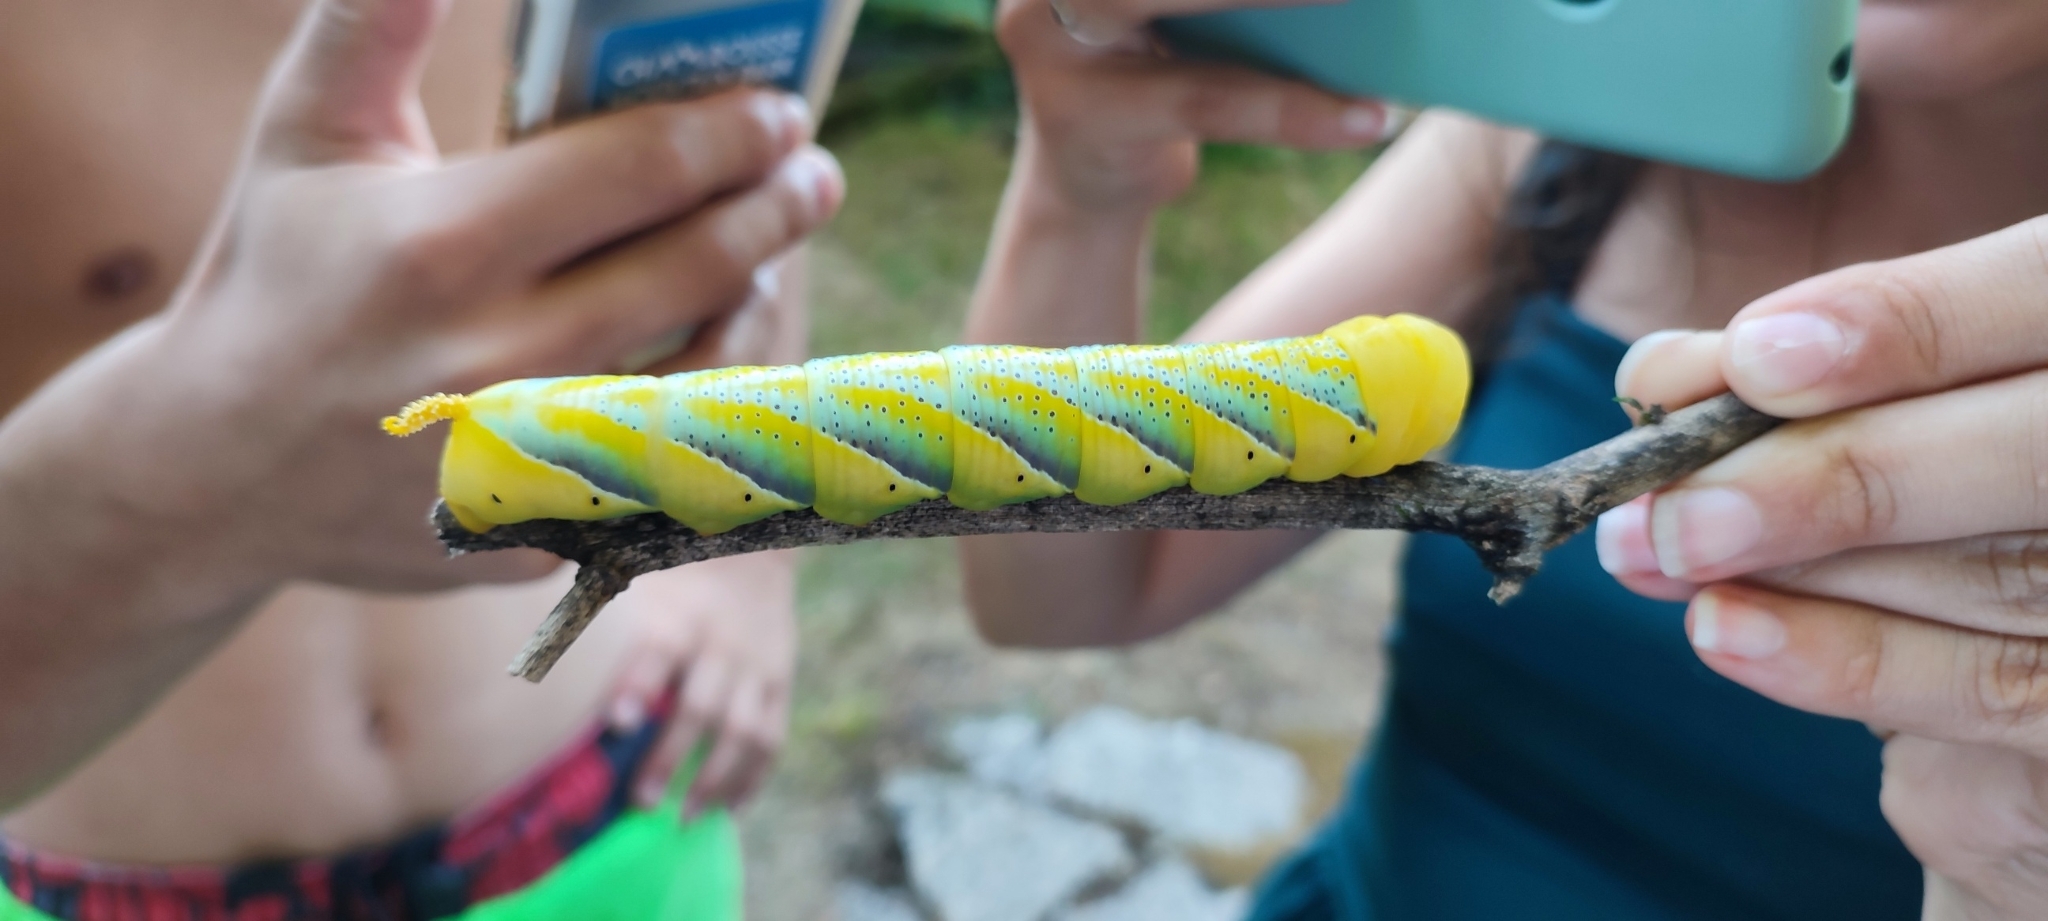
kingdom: Animalia
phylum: Arthropoda
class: Insecta
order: Lepidoptera
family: Sphingidae
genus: Acherontia
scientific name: Acherontia atropos
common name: Death's-head hawk moth
